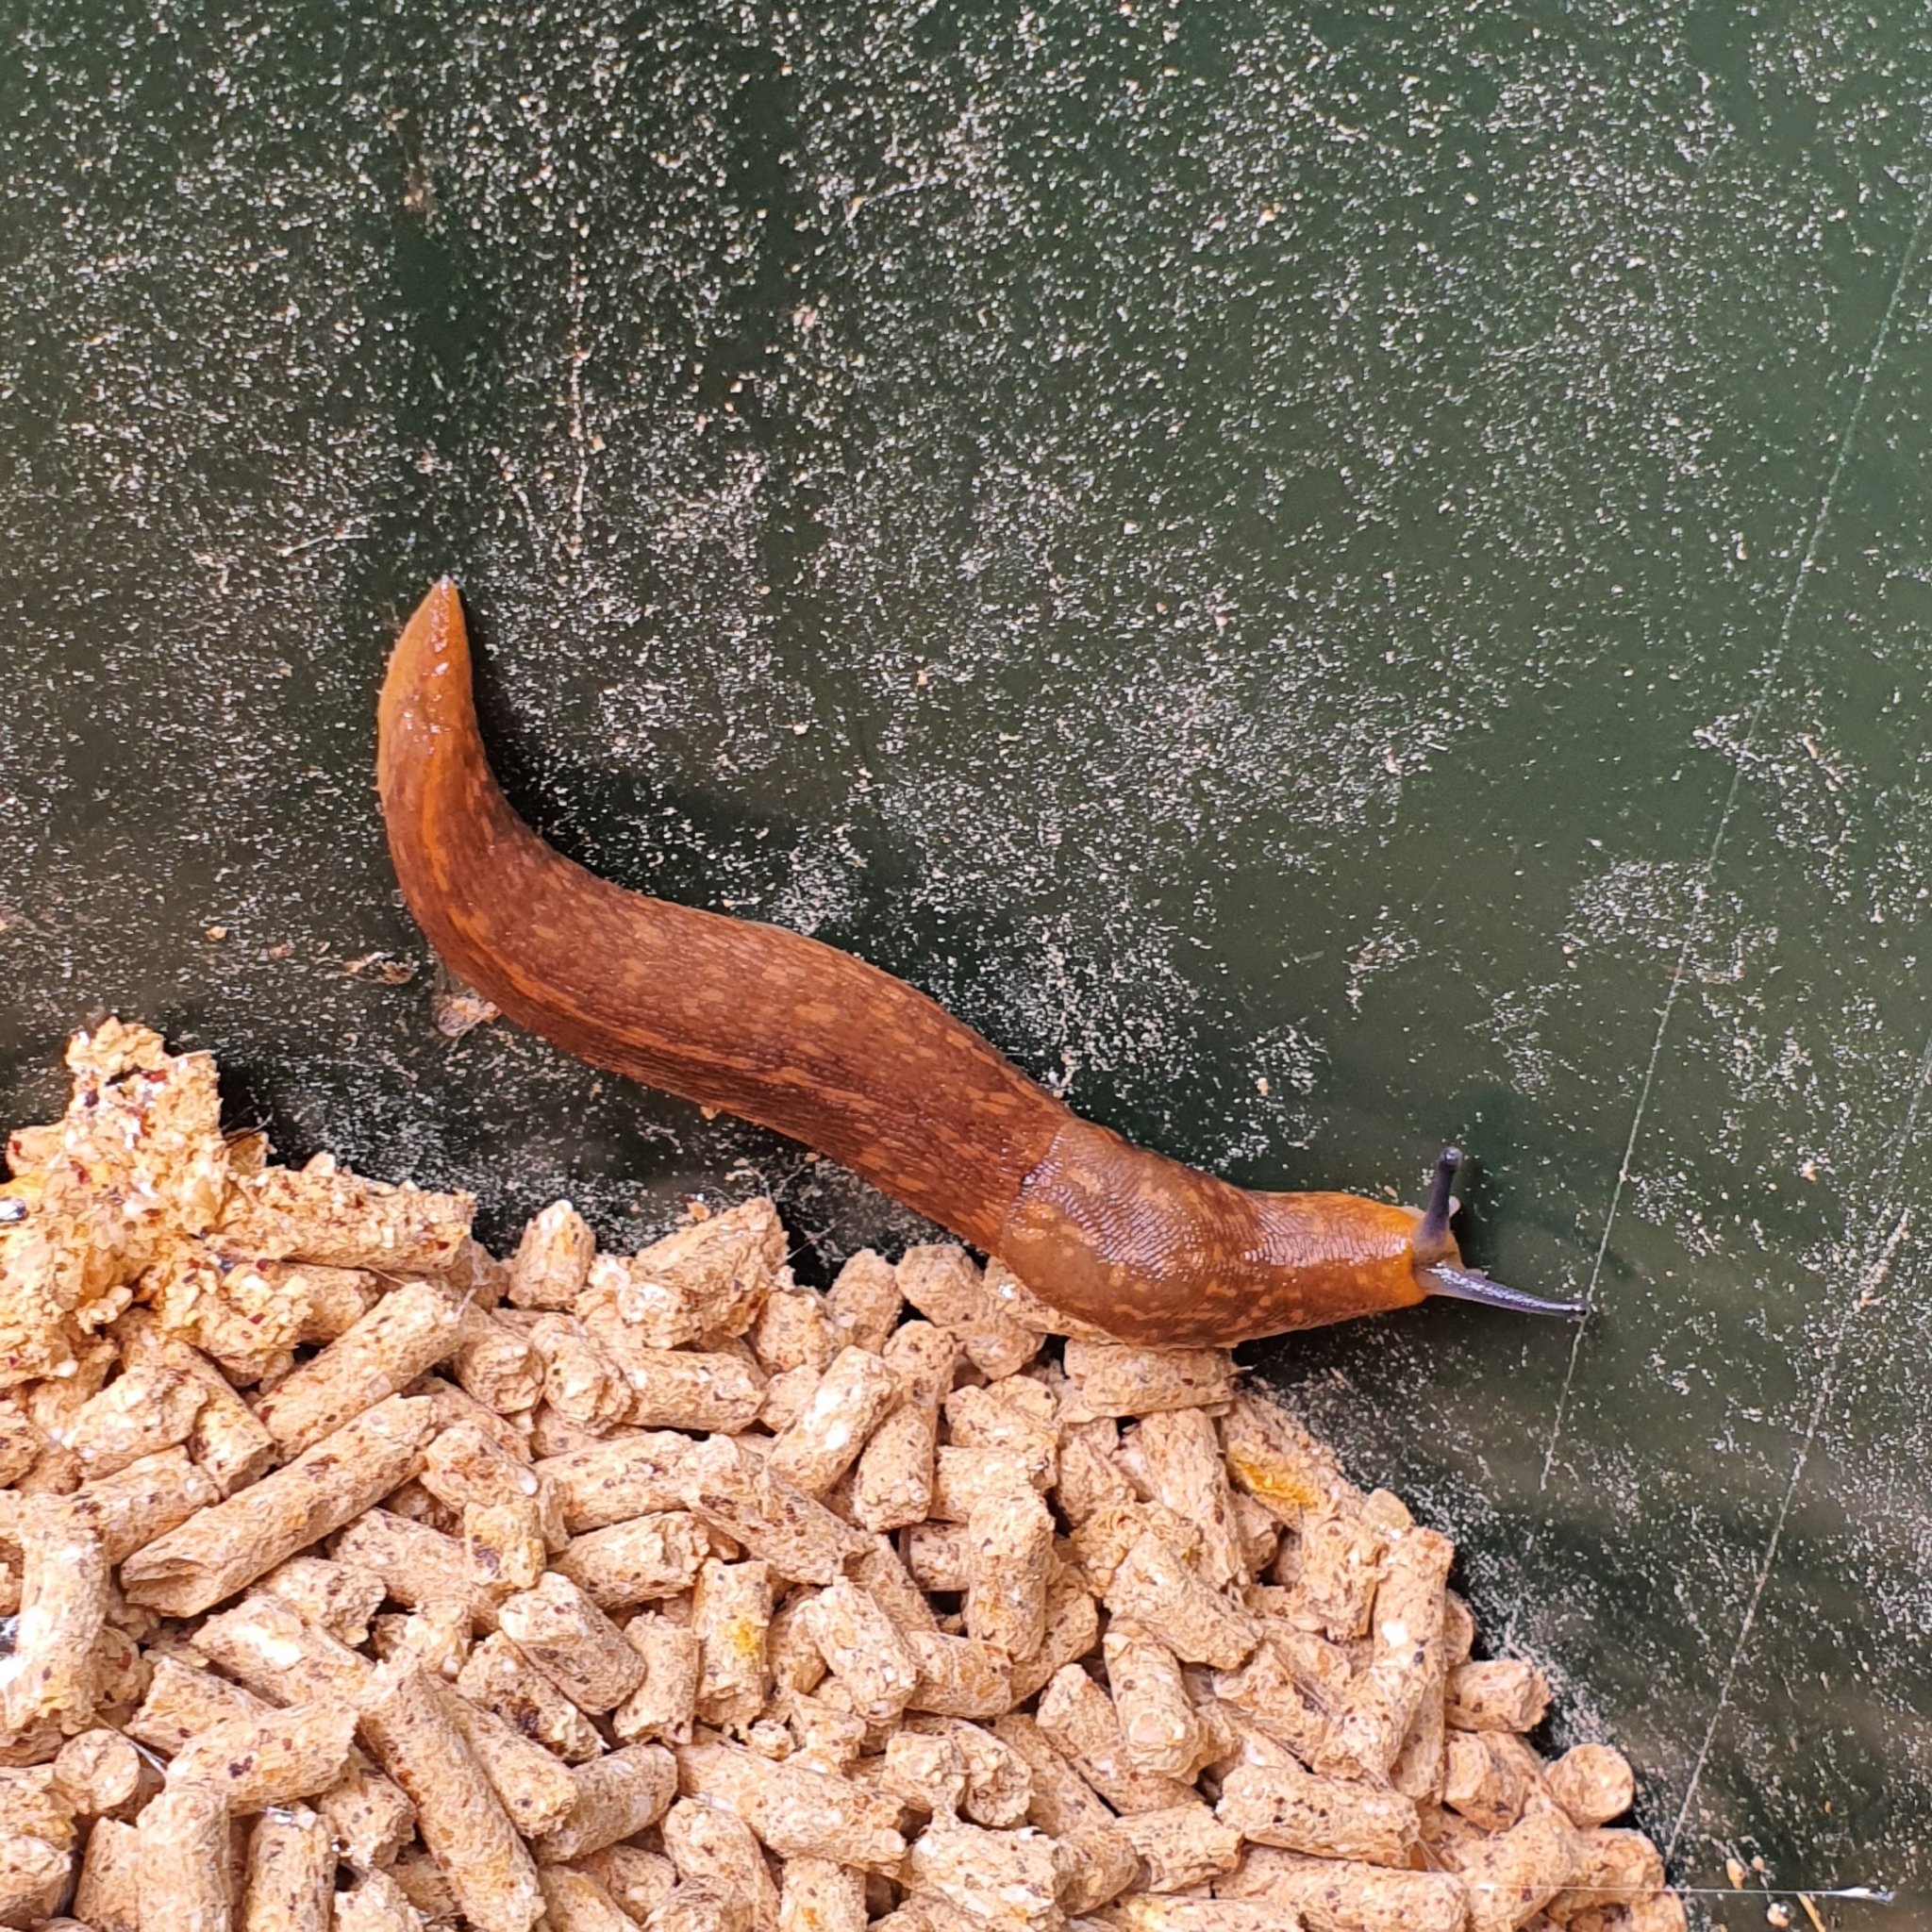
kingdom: Animalia
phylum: Mollusca
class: Gastropoda
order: Stylommatophora
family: Limacidae
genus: Limacus
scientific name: Limacus flavus
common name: Yellow gardenslug
